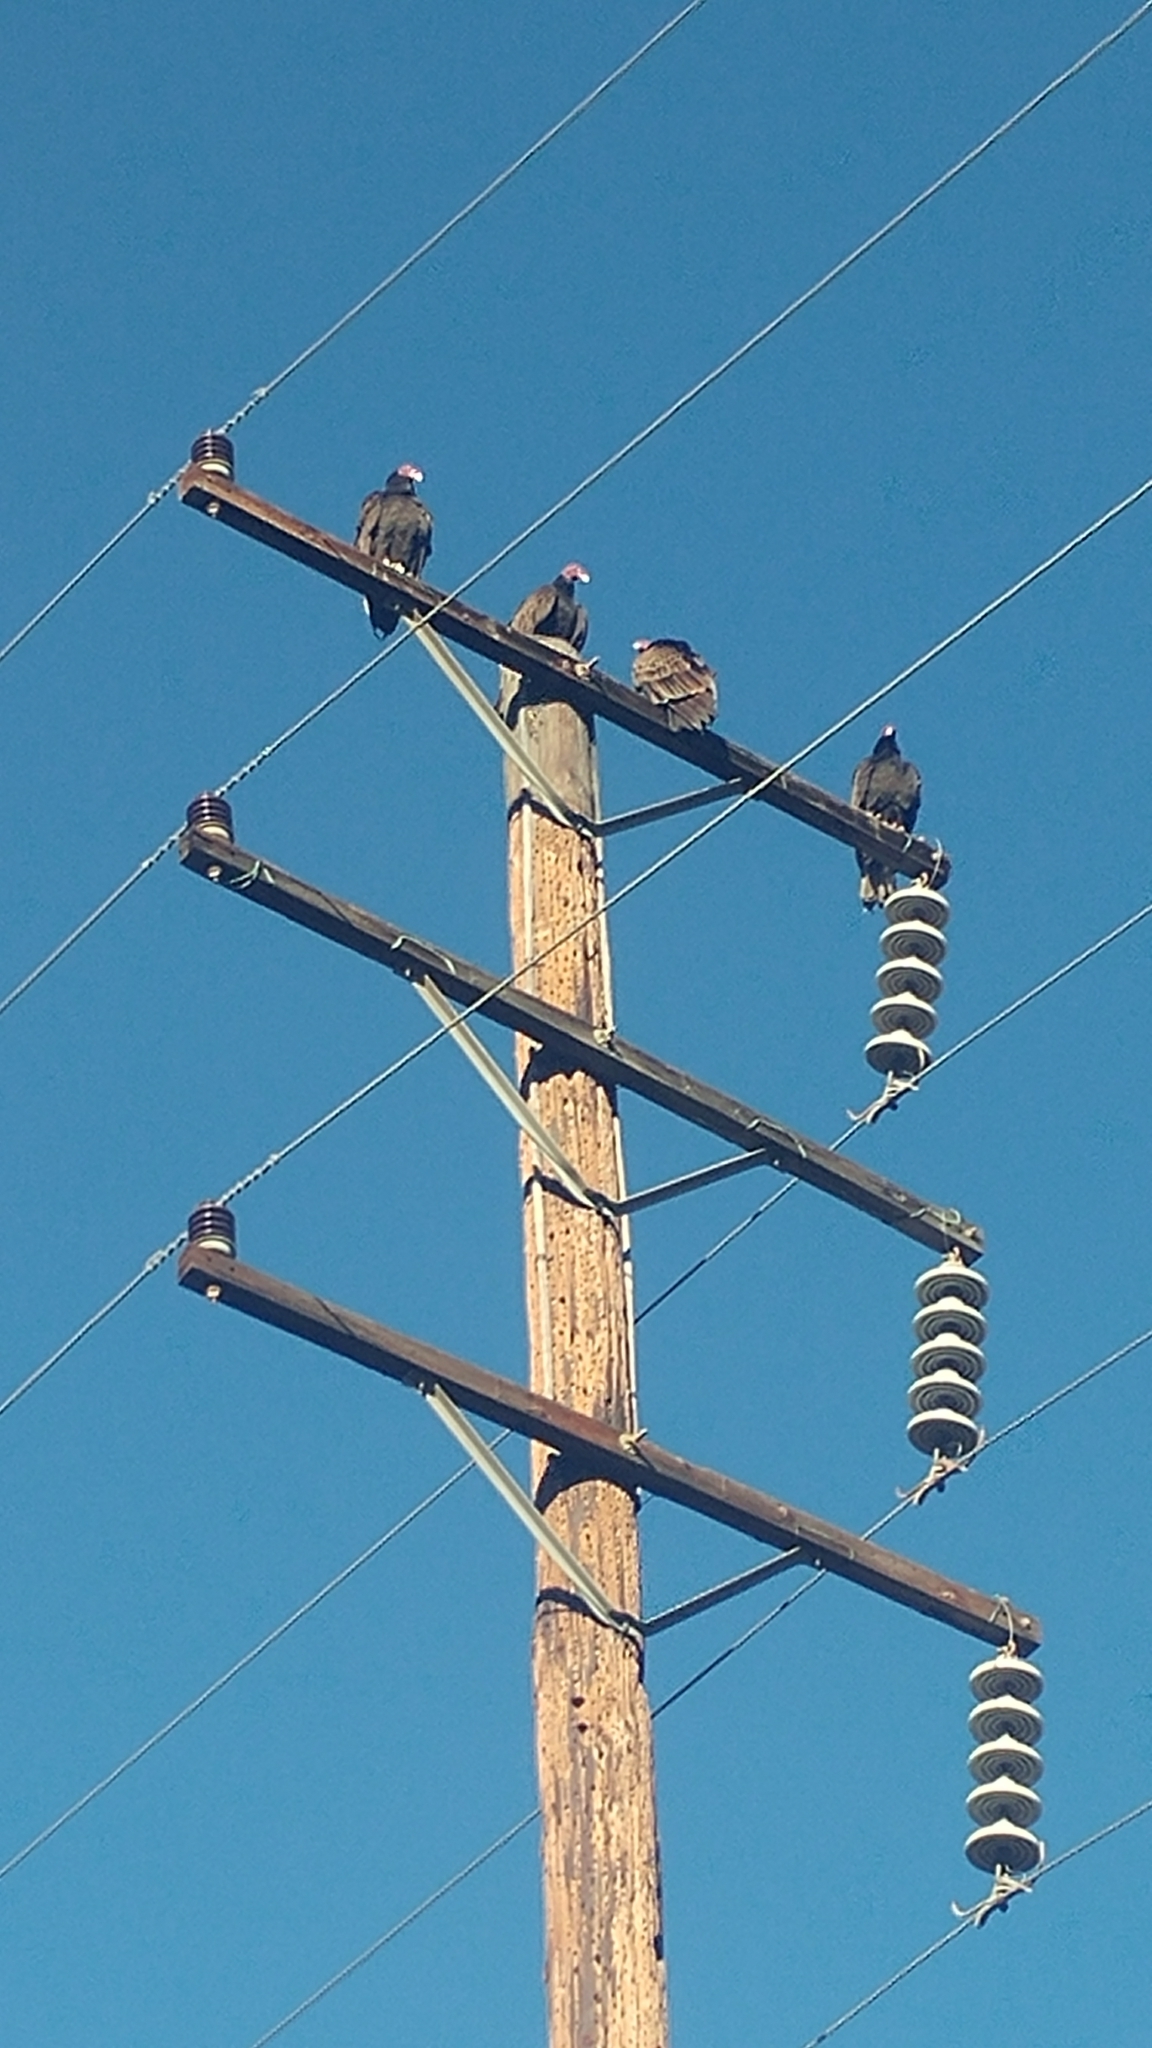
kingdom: Animalia
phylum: Chordata
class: Aves
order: Accipitriformes
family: Cathartidae
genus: Cathartes
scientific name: Cathartes aura
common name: Turkey vulture
